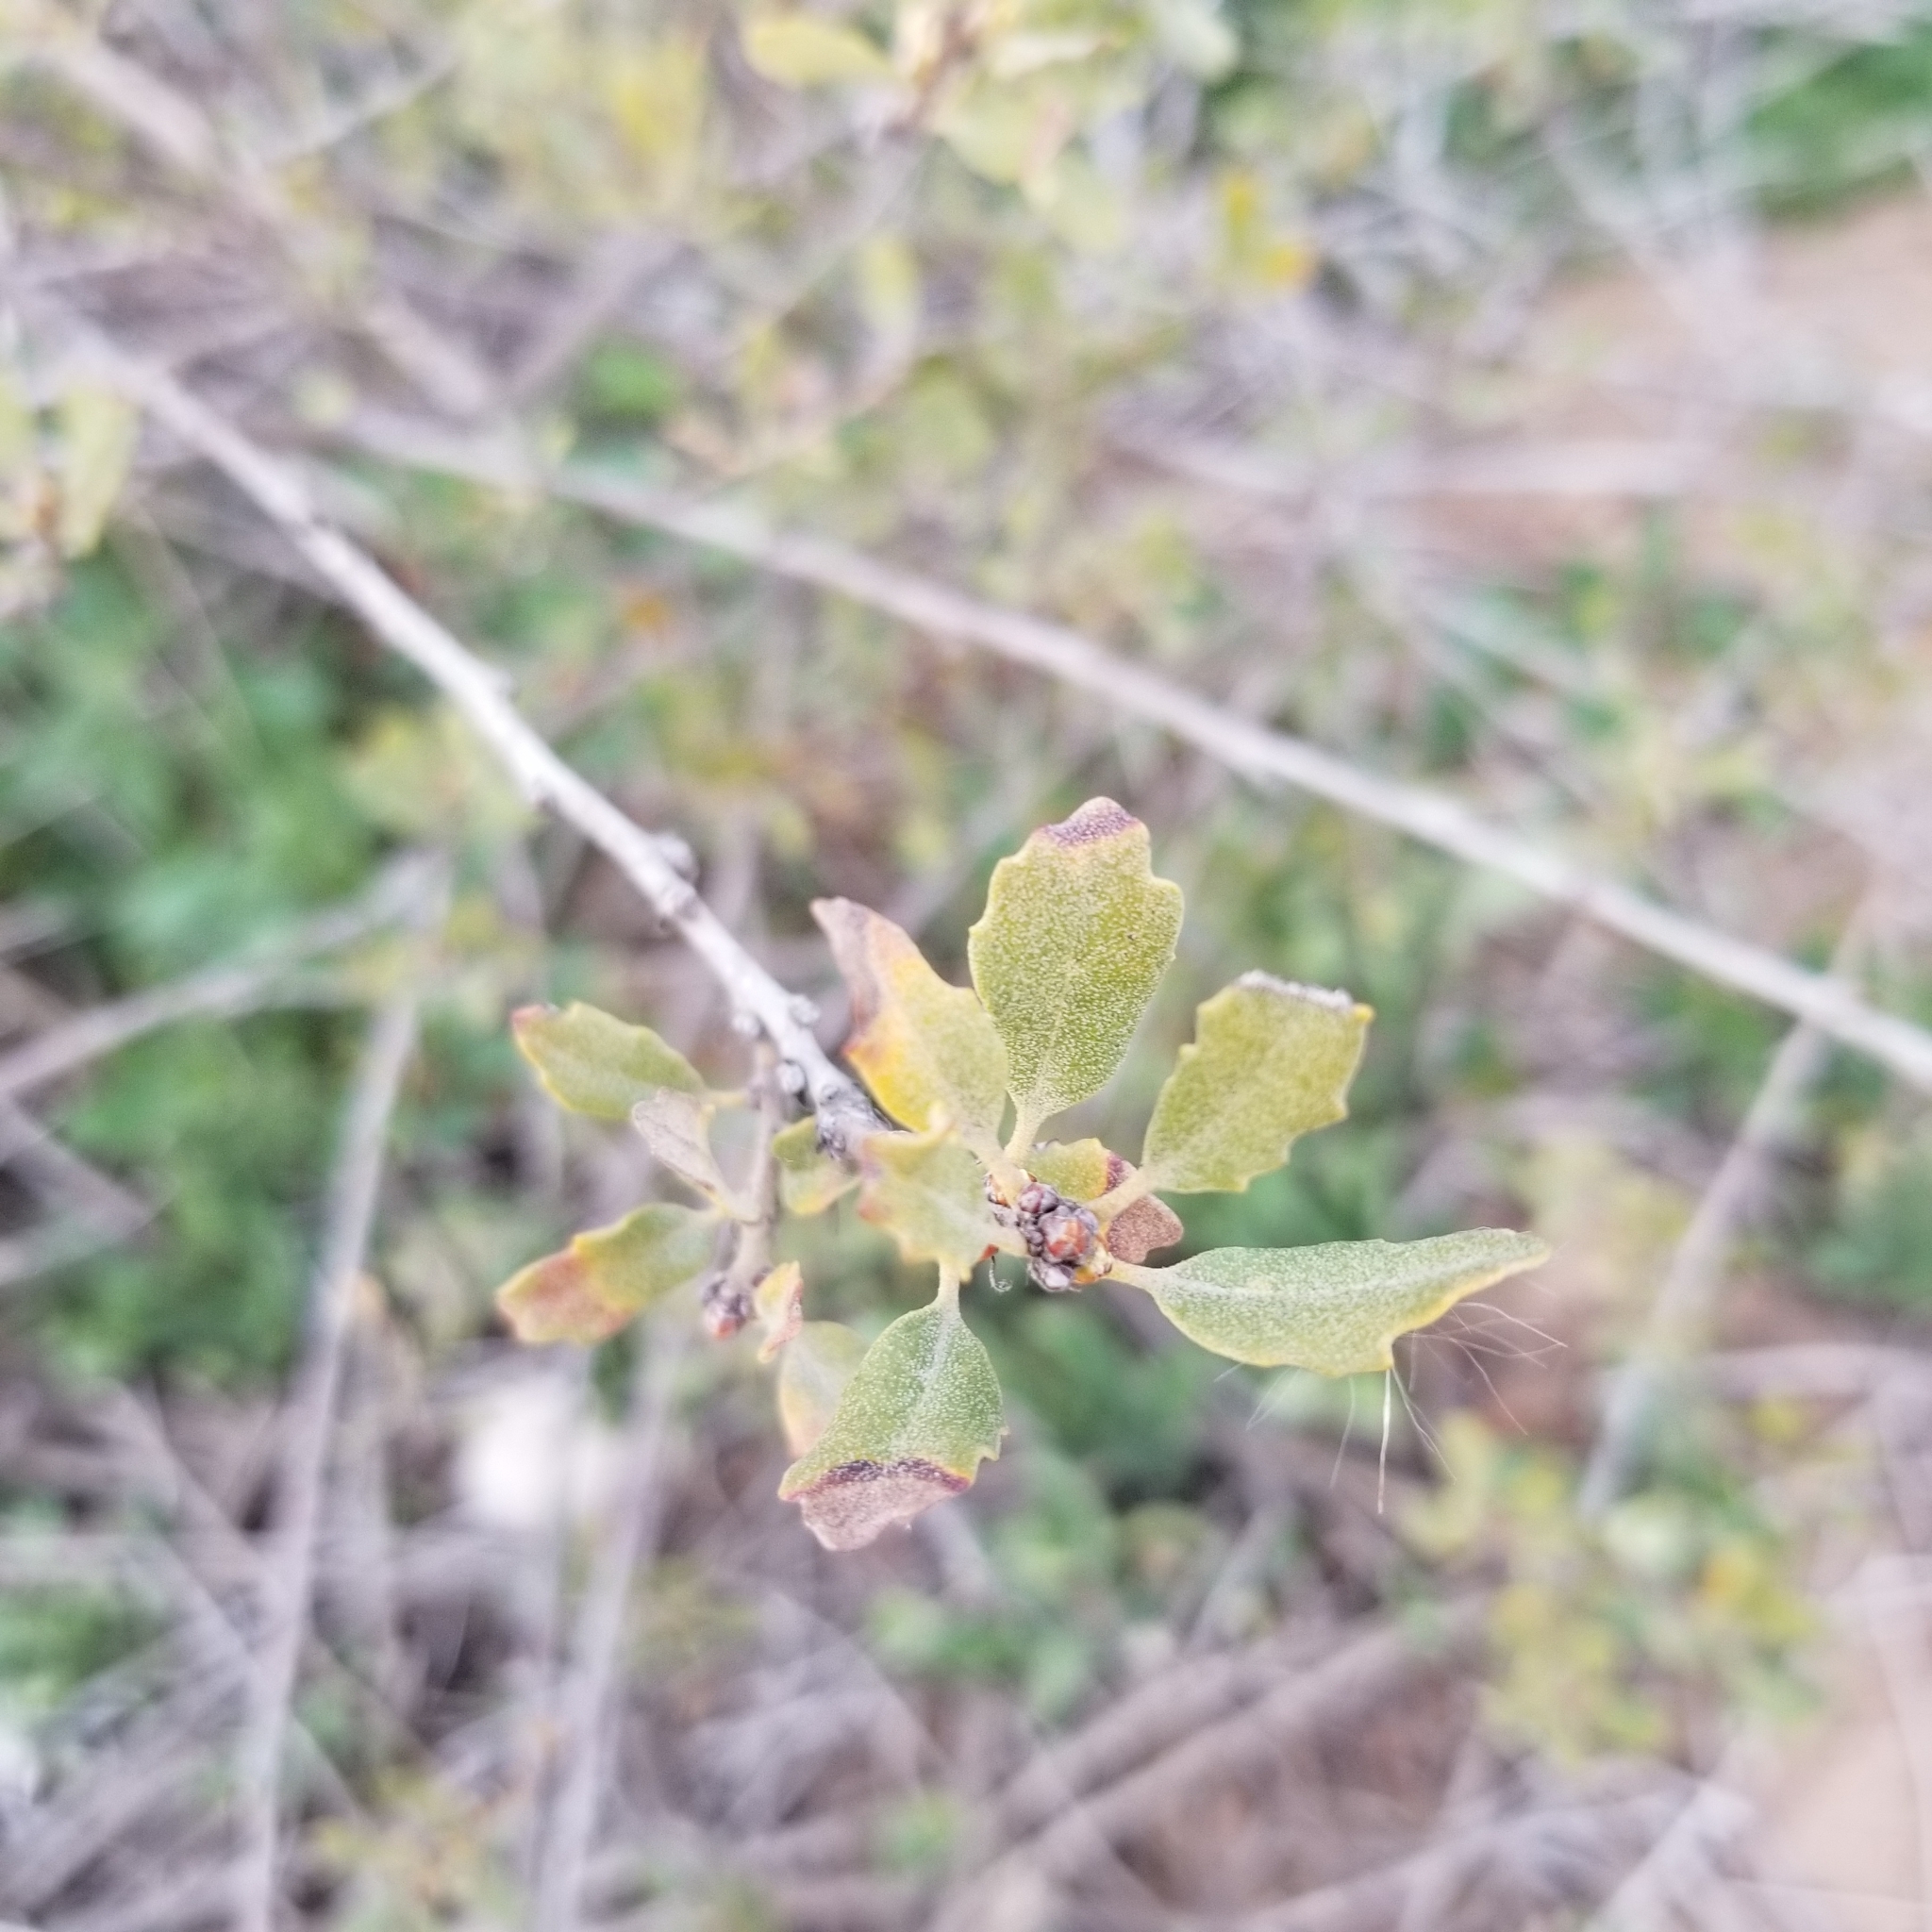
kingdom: Plantae
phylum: Tracheophyta
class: Magnoliopsida
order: Fagales
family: Fagaceae
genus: Quercus
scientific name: Quercus acutidens
